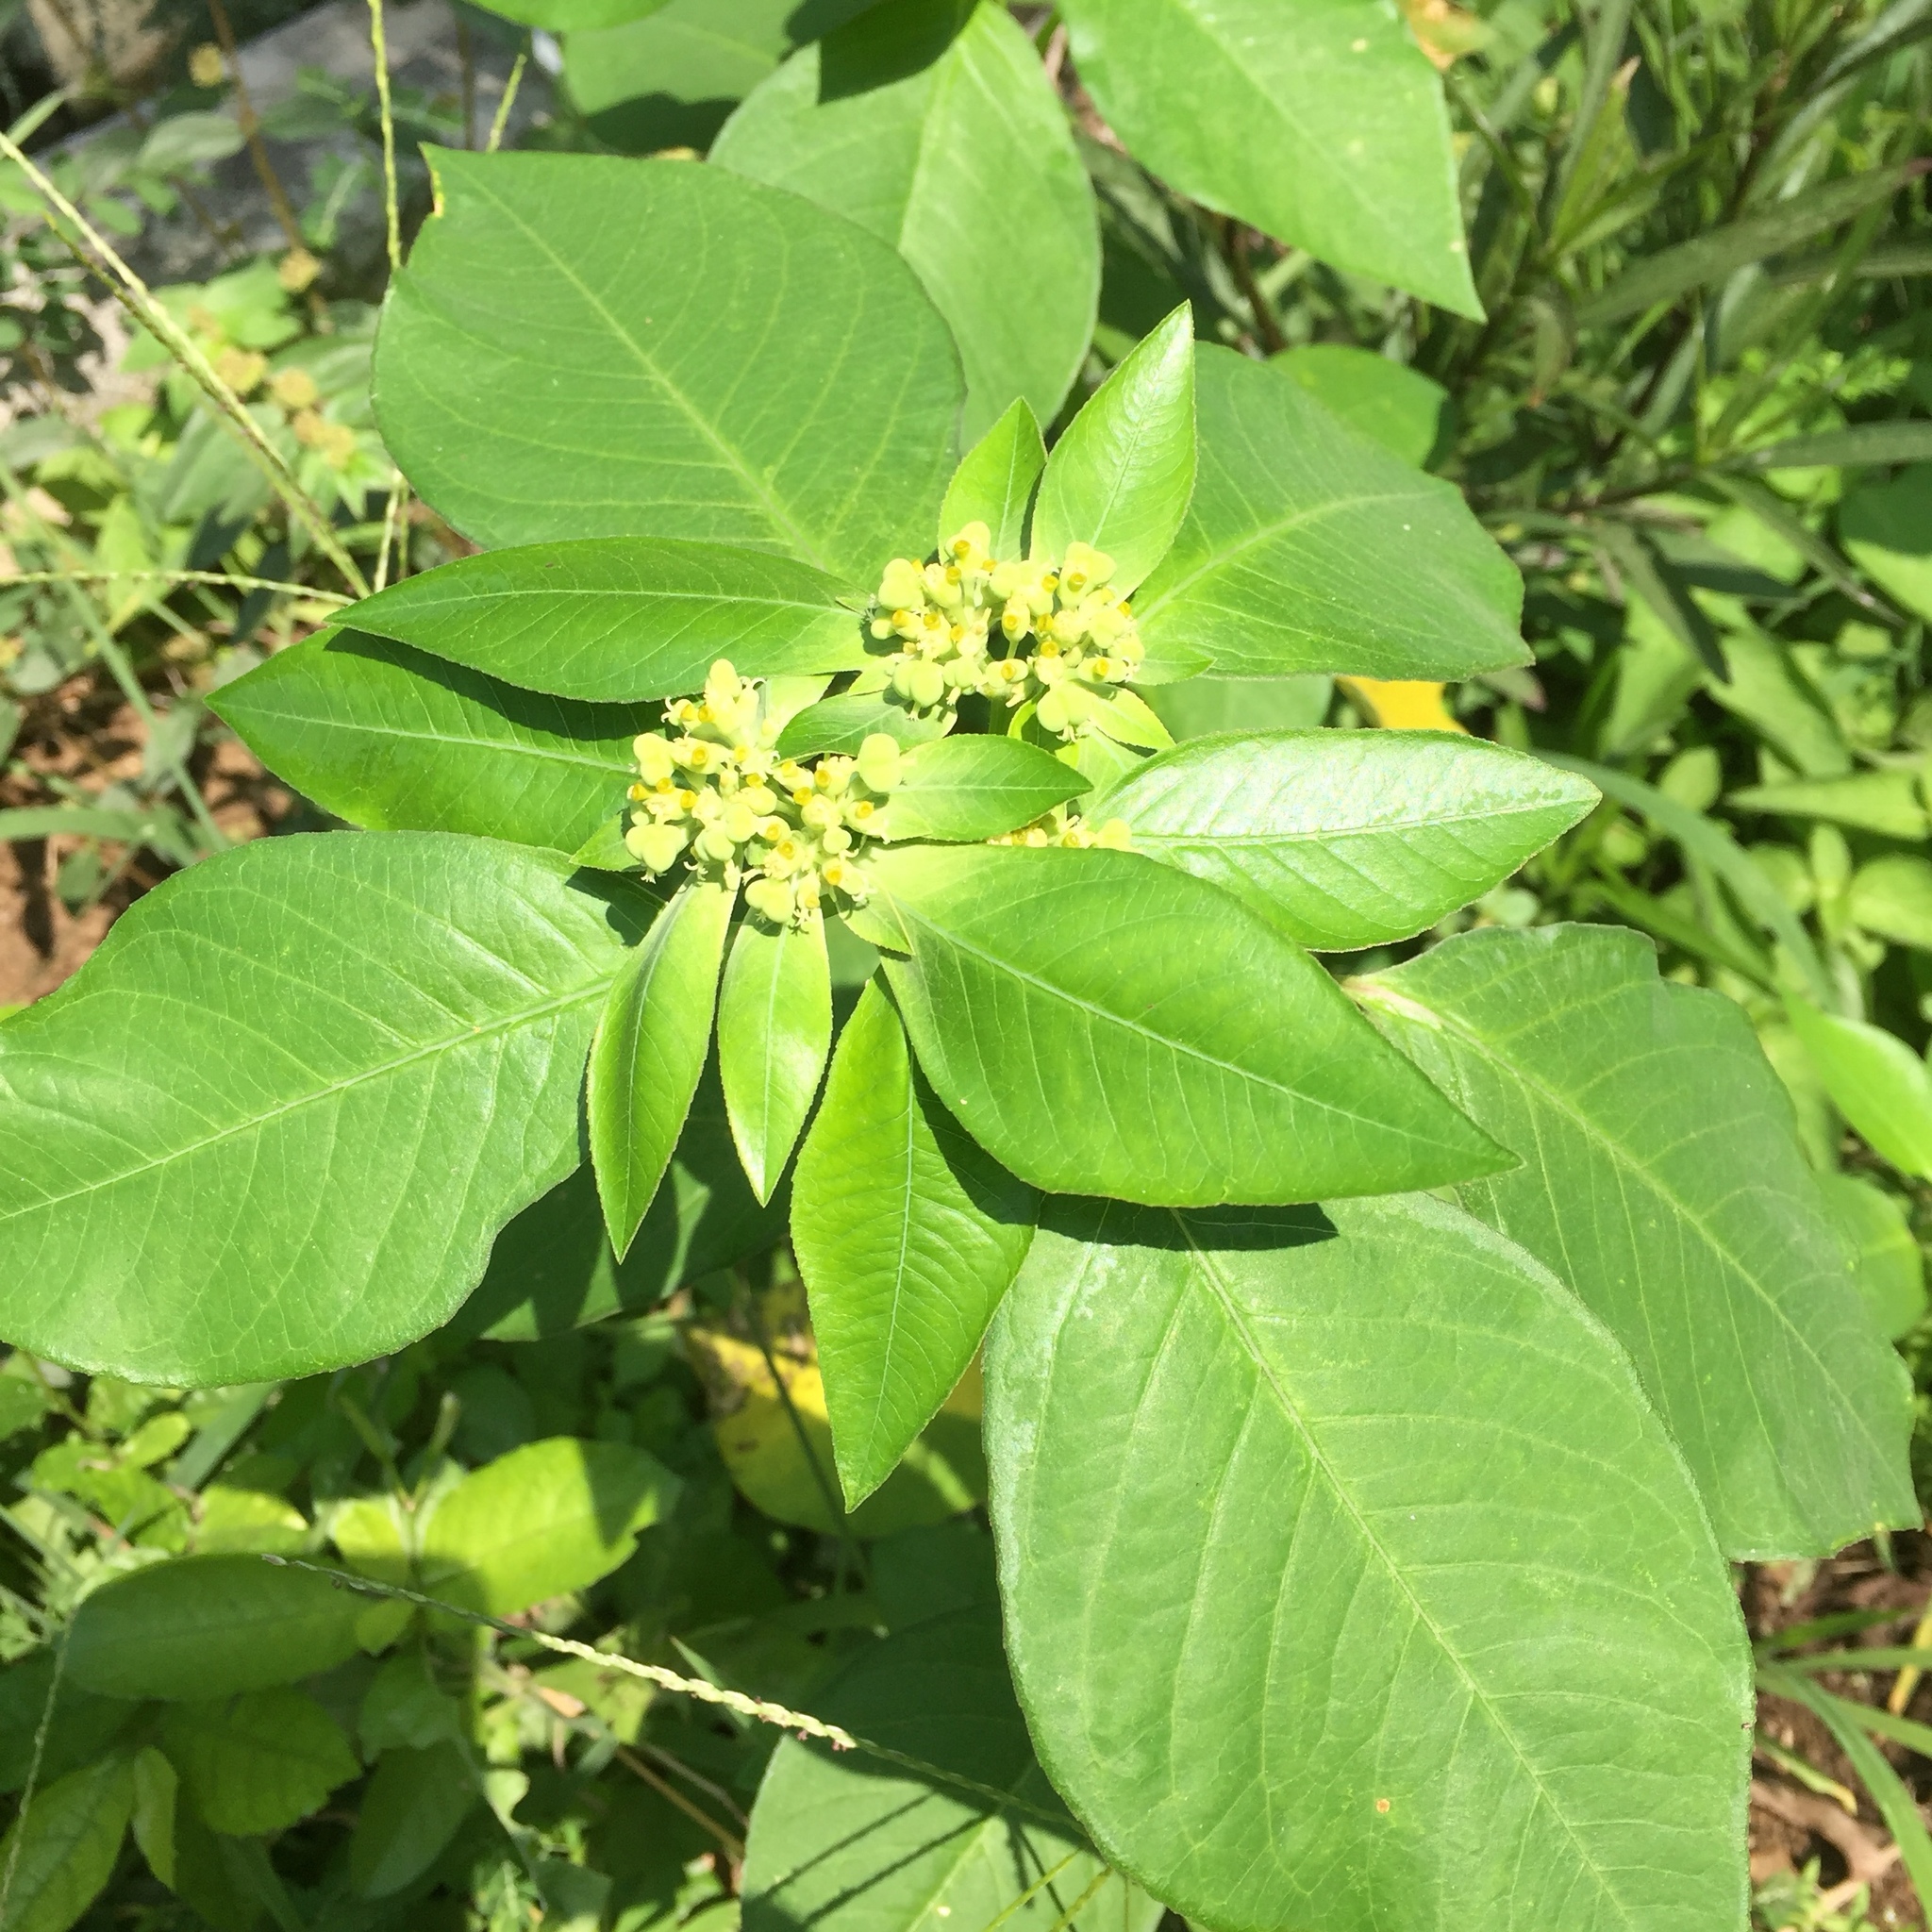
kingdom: Plantae
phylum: Tracheophyta
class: Magnoliopsida
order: Malpighiales
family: Euphorbiaceae
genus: Euphorbia
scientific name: Euphorbia heterophylla
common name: Mexican fireplant
